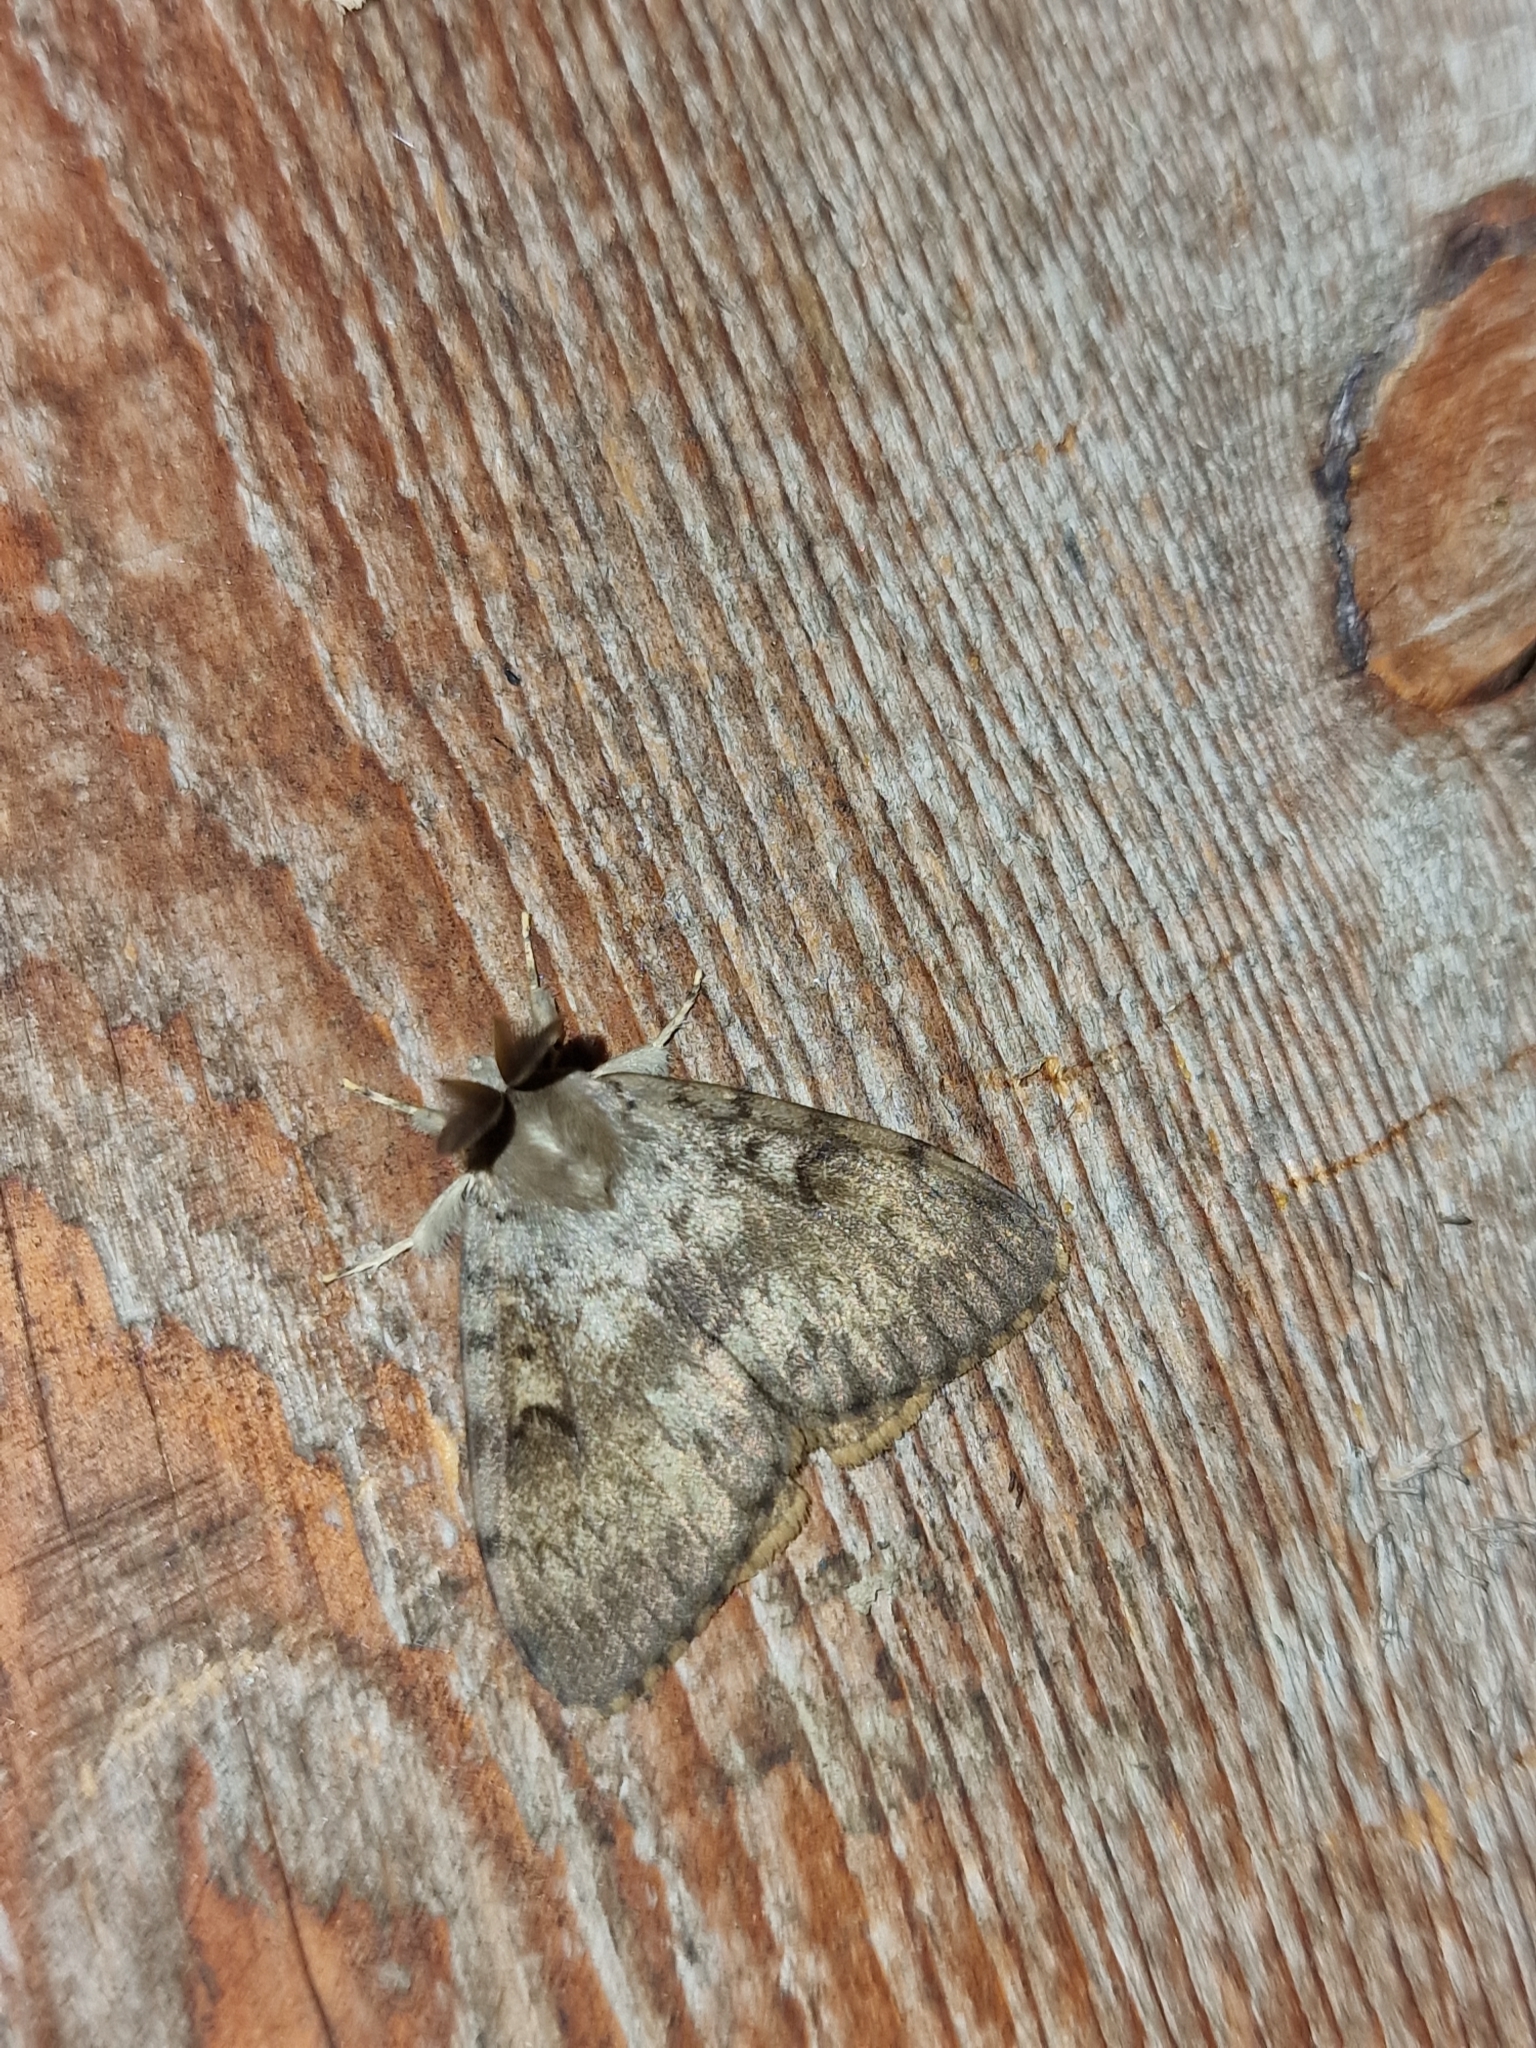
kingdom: Animalia
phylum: Arthropoda
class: Insecta
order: Lepidoptera
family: Erebidae
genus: Lymantria
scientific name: Lymantria dispar
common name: Gypsy moth
